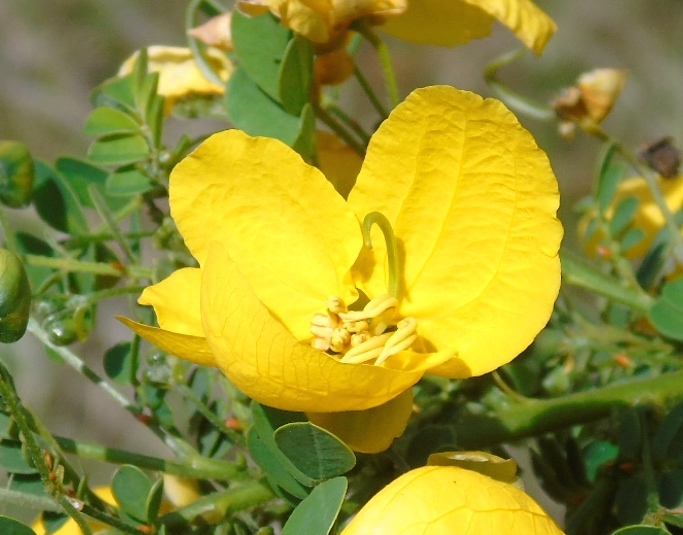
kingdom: Plantae
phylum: Tracheophyta
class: Magnoliopsida
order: Fabales
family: Fabaceae
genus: Senna
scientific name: Senna pallida
